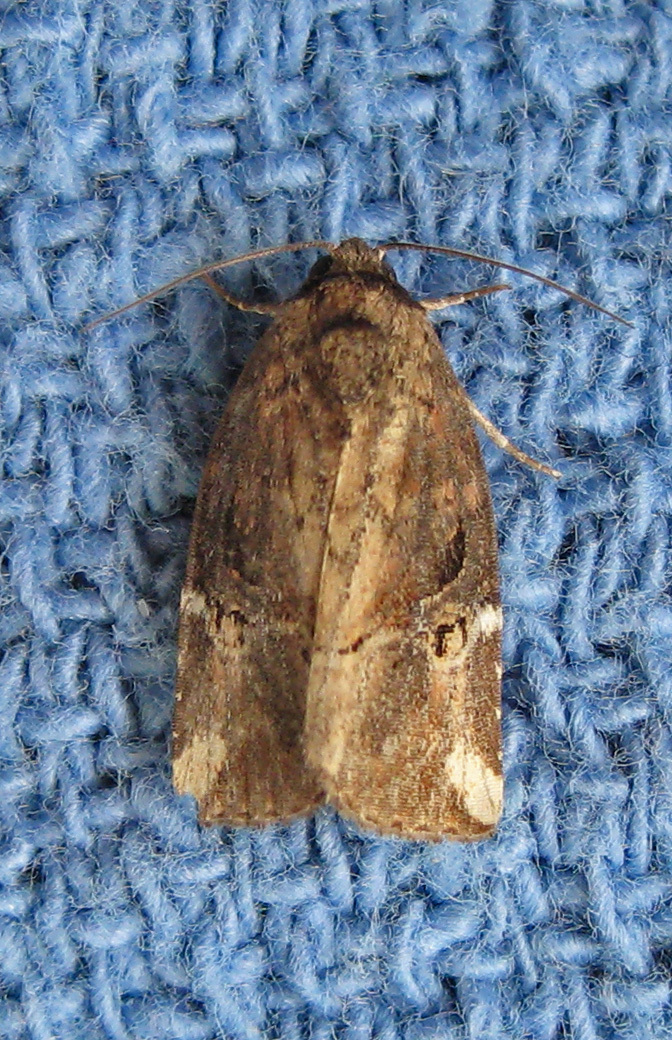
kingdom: Animalia
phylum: Arthropoda
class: Insecta
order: Lepidoptera
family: Noctuidae
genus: Elaphria
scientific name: Elaphria versicolor
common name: Fir harlequin
